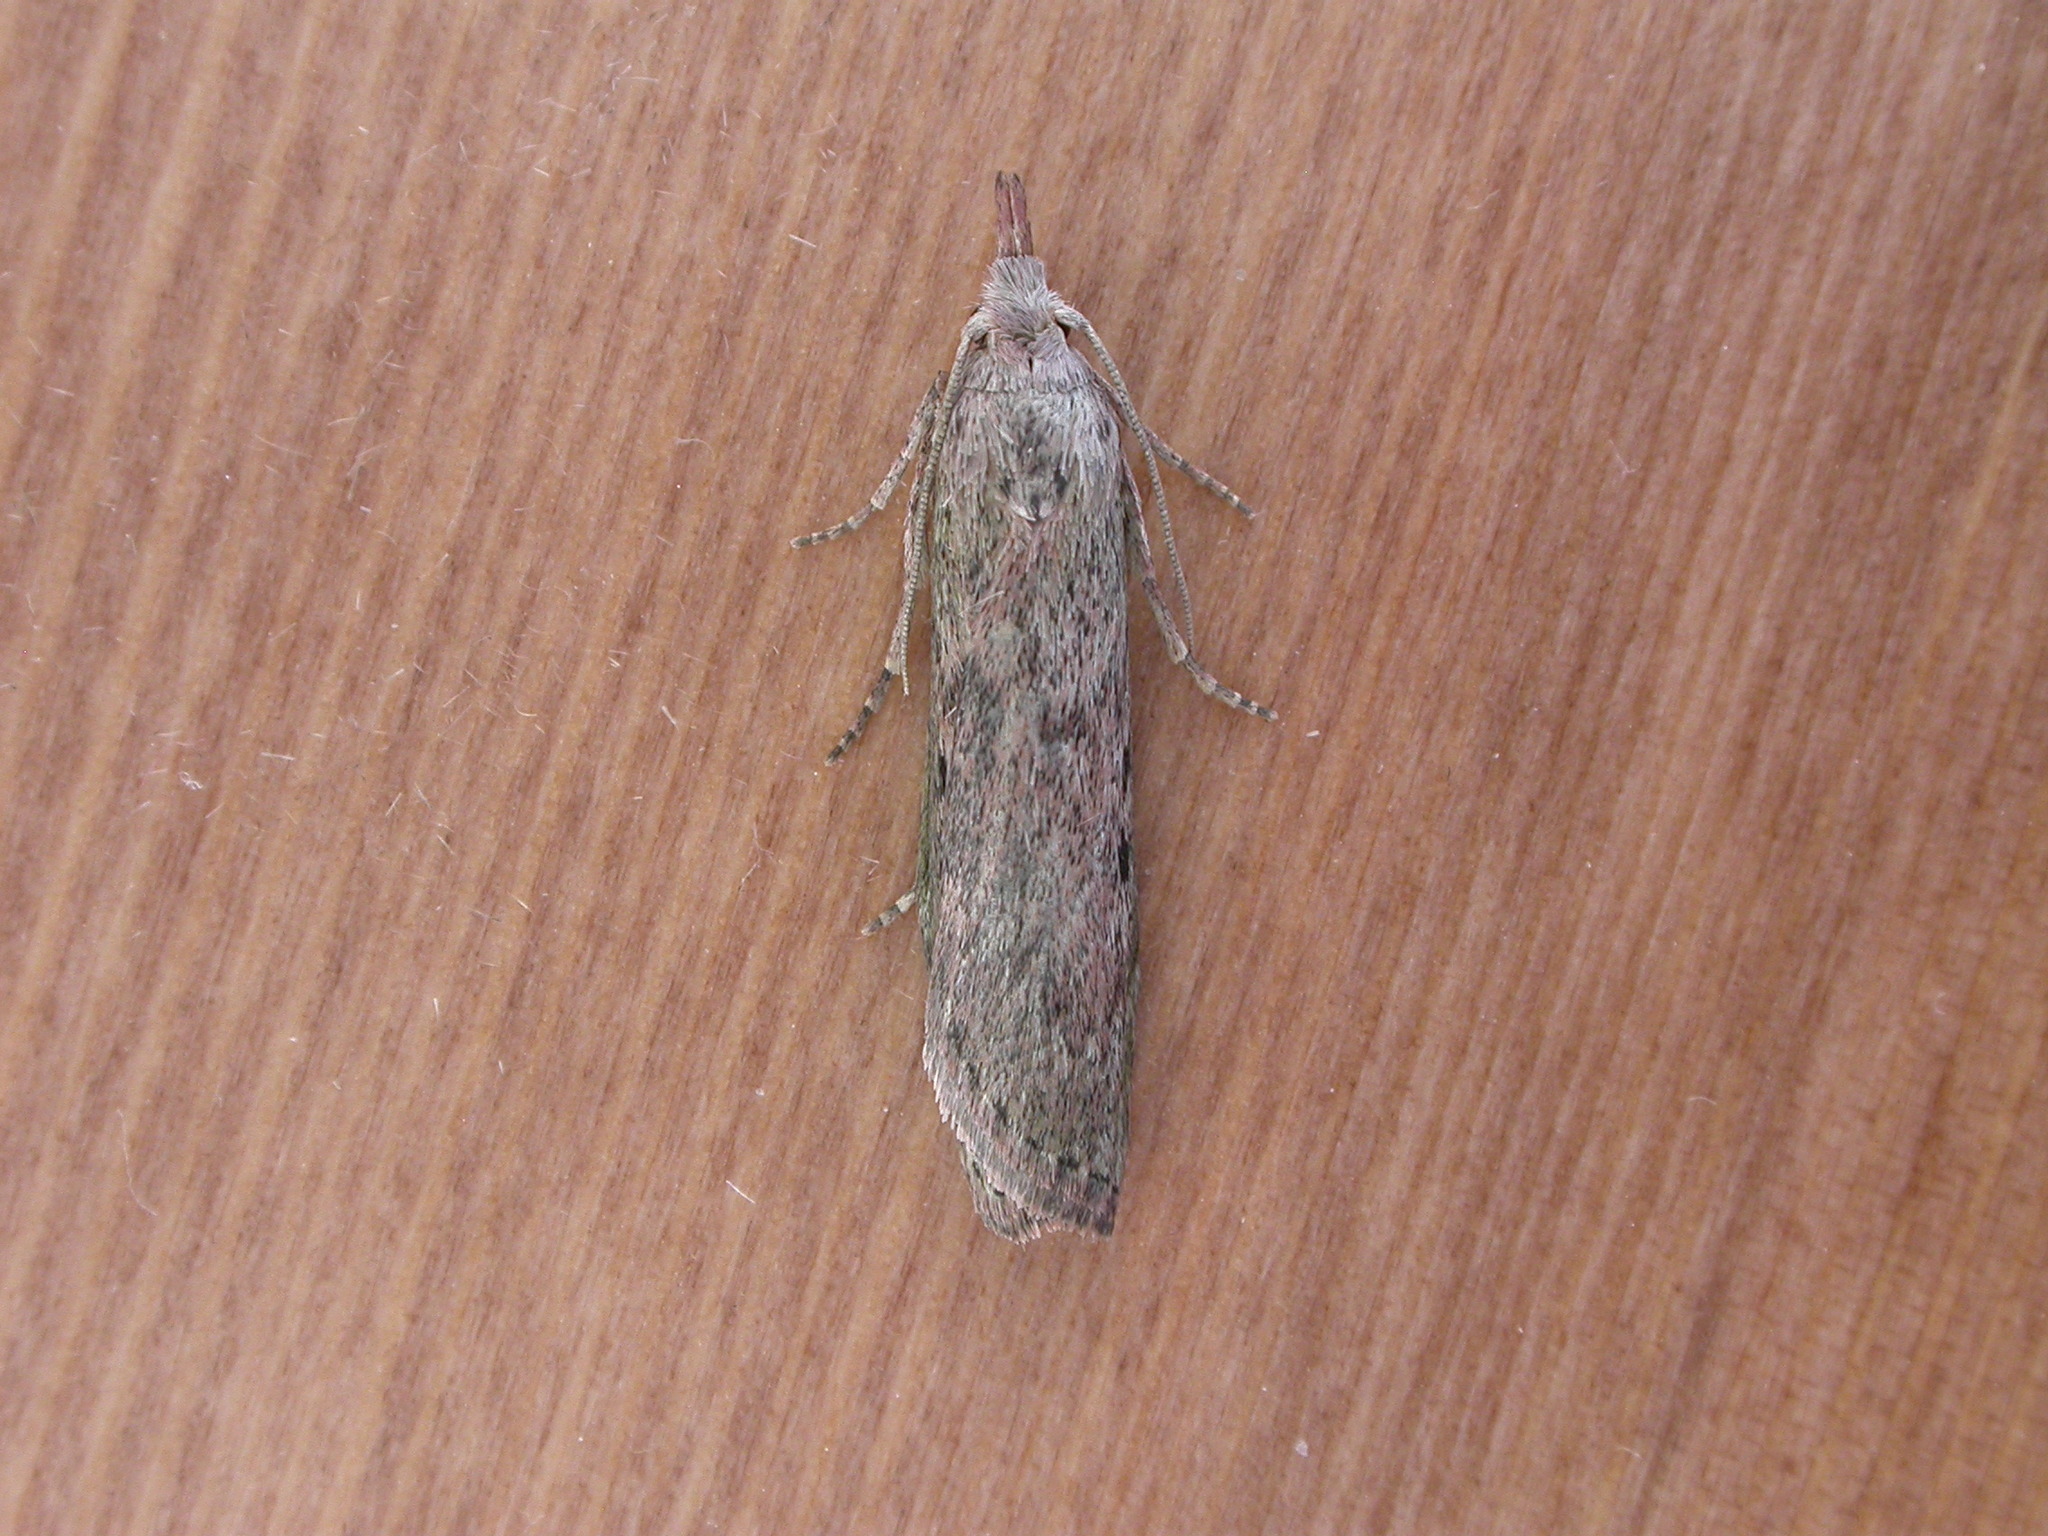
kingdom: Animalia
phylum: Arthropoda
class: Insecta
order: Lepidoptera
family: Pyralidae
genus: Aphomia
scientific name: Aphomia sociella
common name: Bee moth
